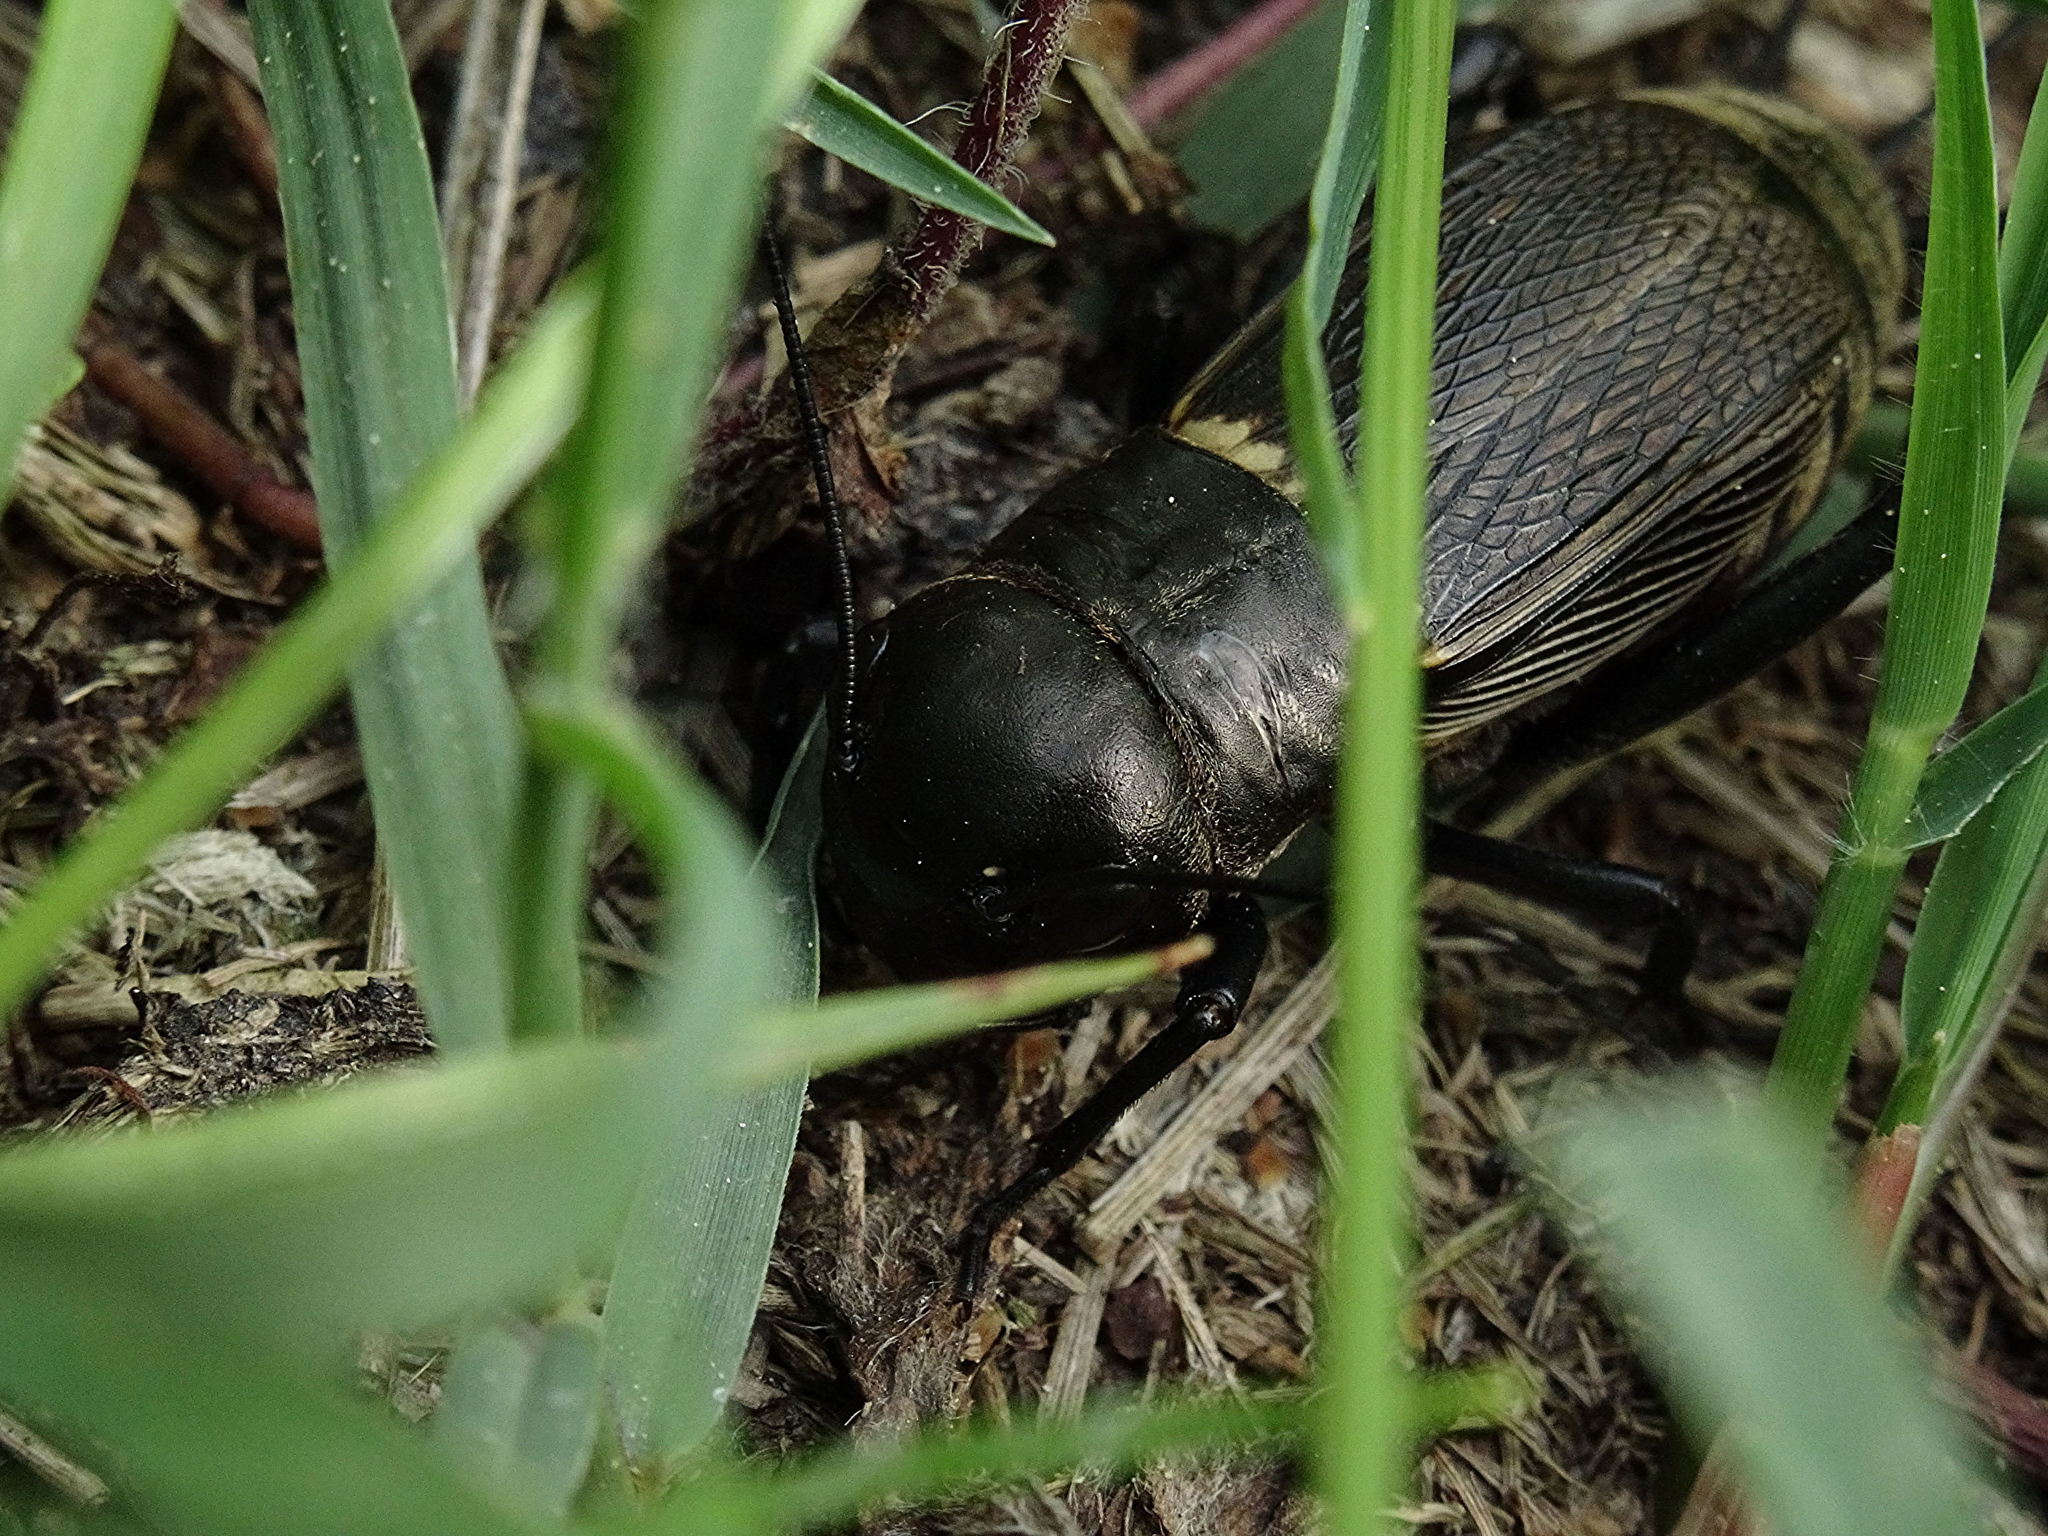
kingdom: Animalia
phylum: Arthropoda
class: Insecta
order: Orthoptera
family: Gryllidae
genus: Gryllus
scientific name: Gryllus campestris
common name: Field cricket
